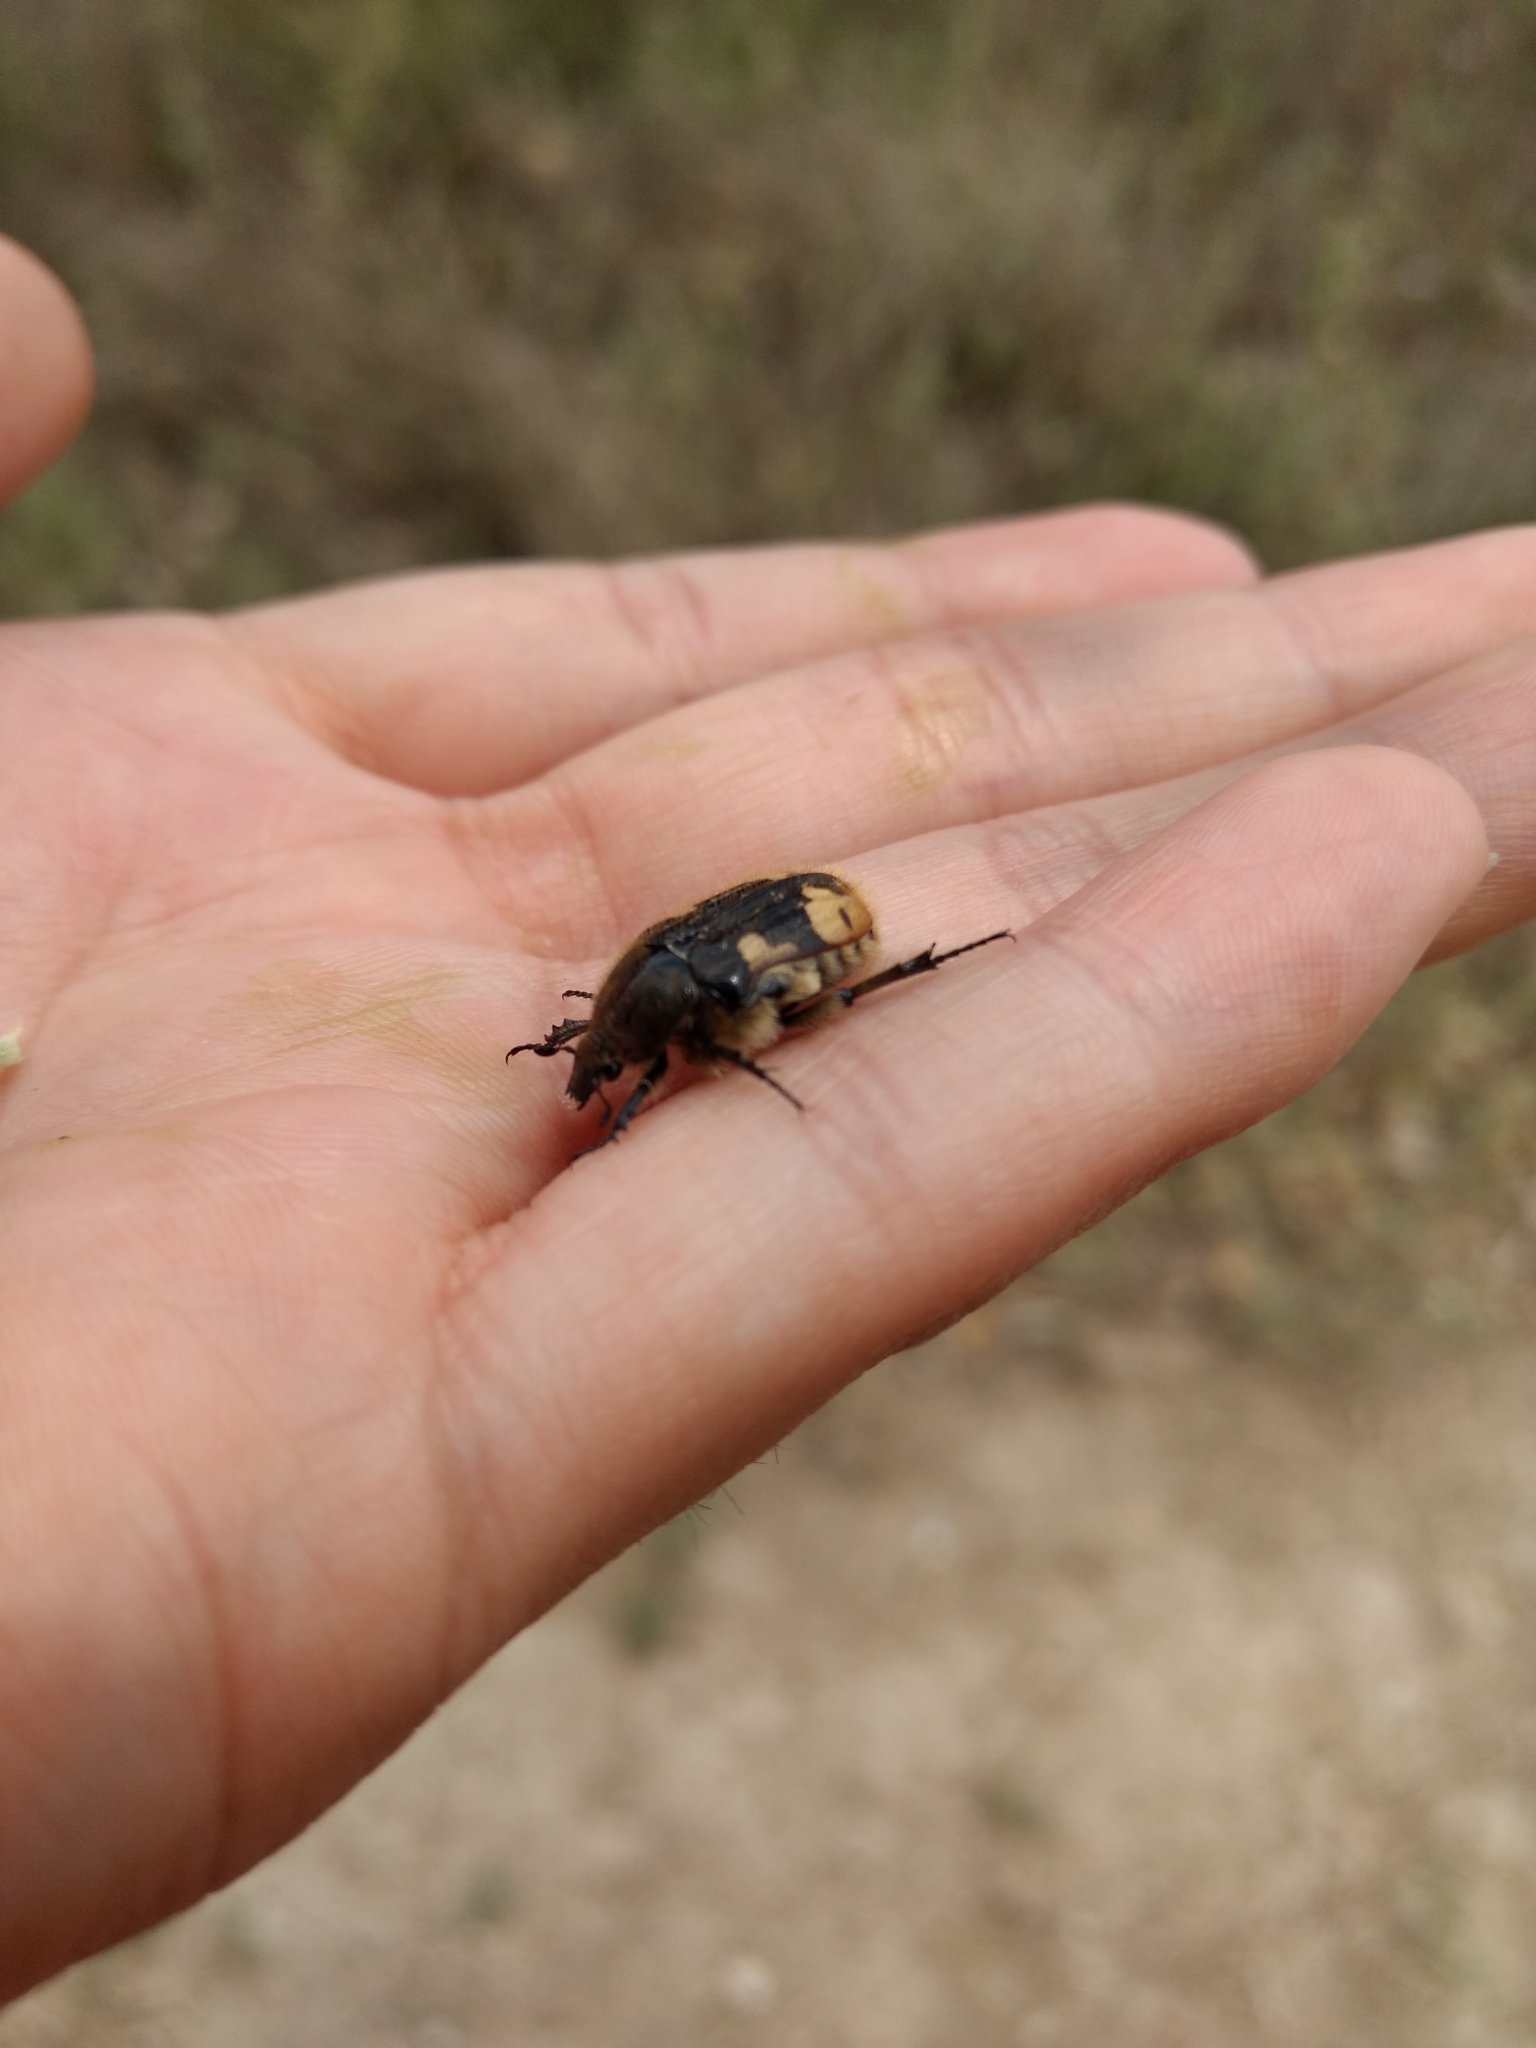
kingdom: Animalia
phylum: Arthropoda
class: Insecta
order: Coleoptera
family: Scarabaeidae
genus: Euphoria
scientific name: Euphoria basalis
